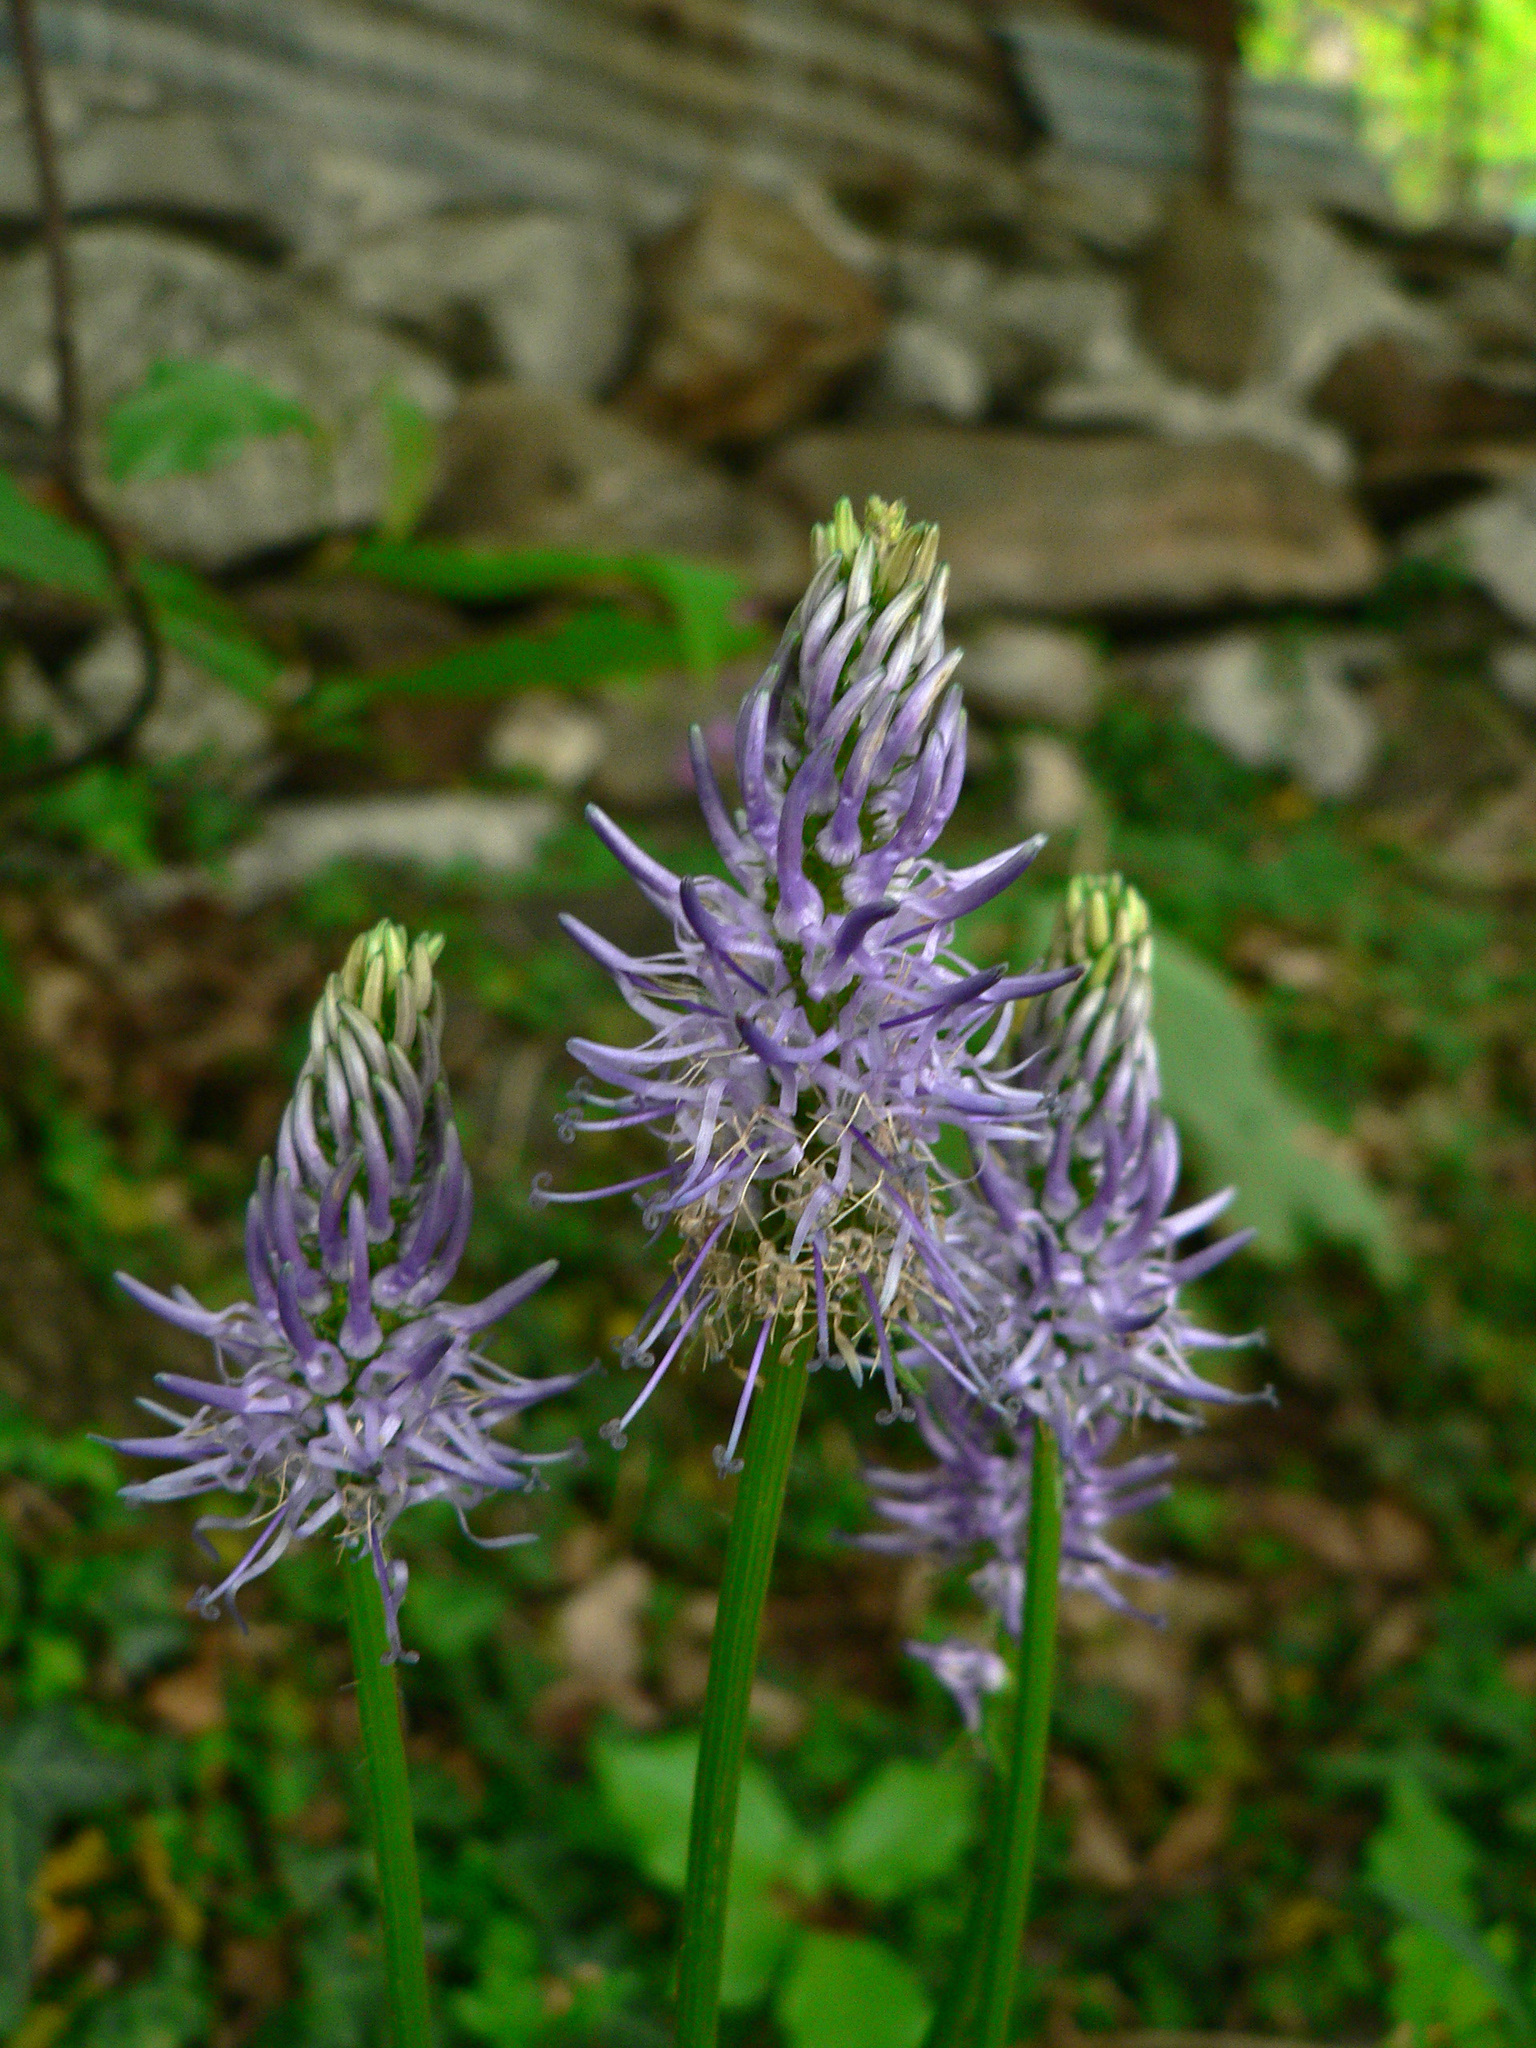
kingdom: Plantae
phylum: Tracheophyta
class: Magnoliopsida
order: Asterales
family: Campanulaceae
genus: Phyteuma
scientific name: Phyteuma betonicifolium
